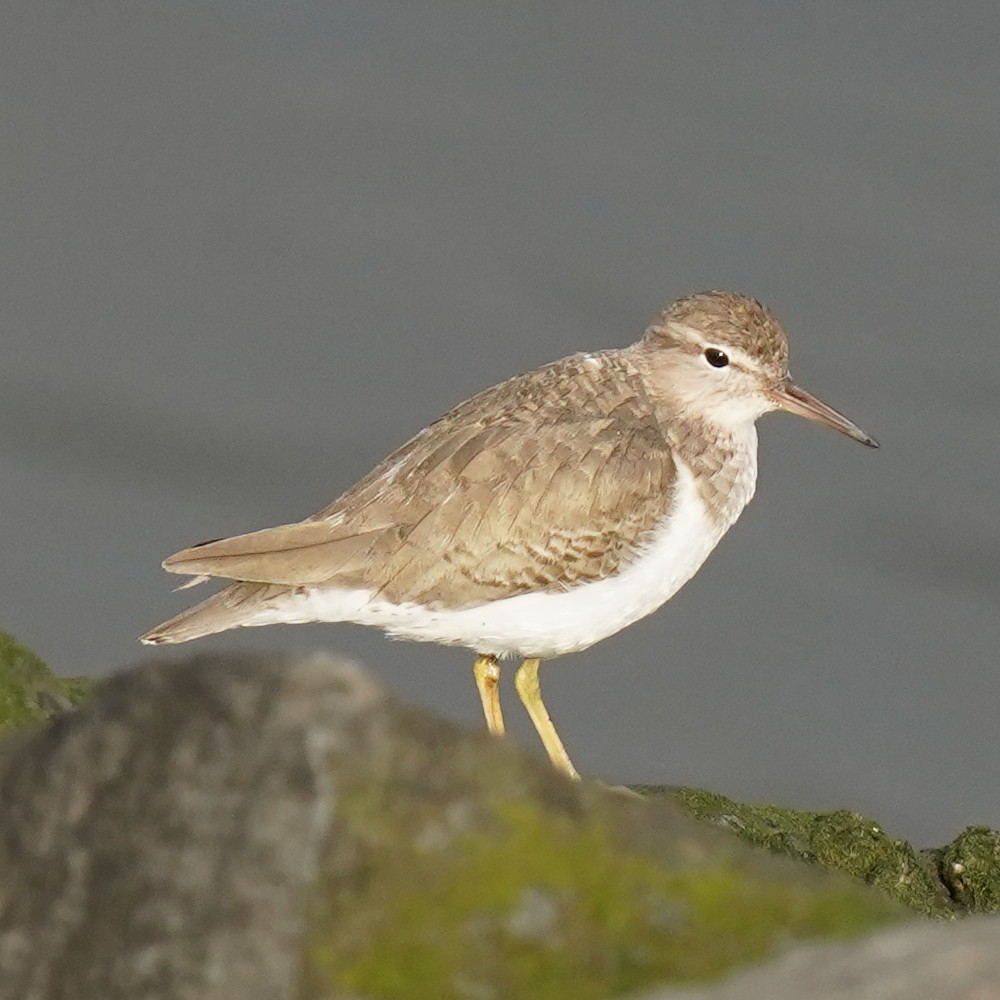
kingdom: Animalia
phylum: Chordata
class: Aves
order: Charadriiformes
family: Scolopacidae
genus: Actitis
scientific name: Actitis macularius
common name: Spotted sandpiper
